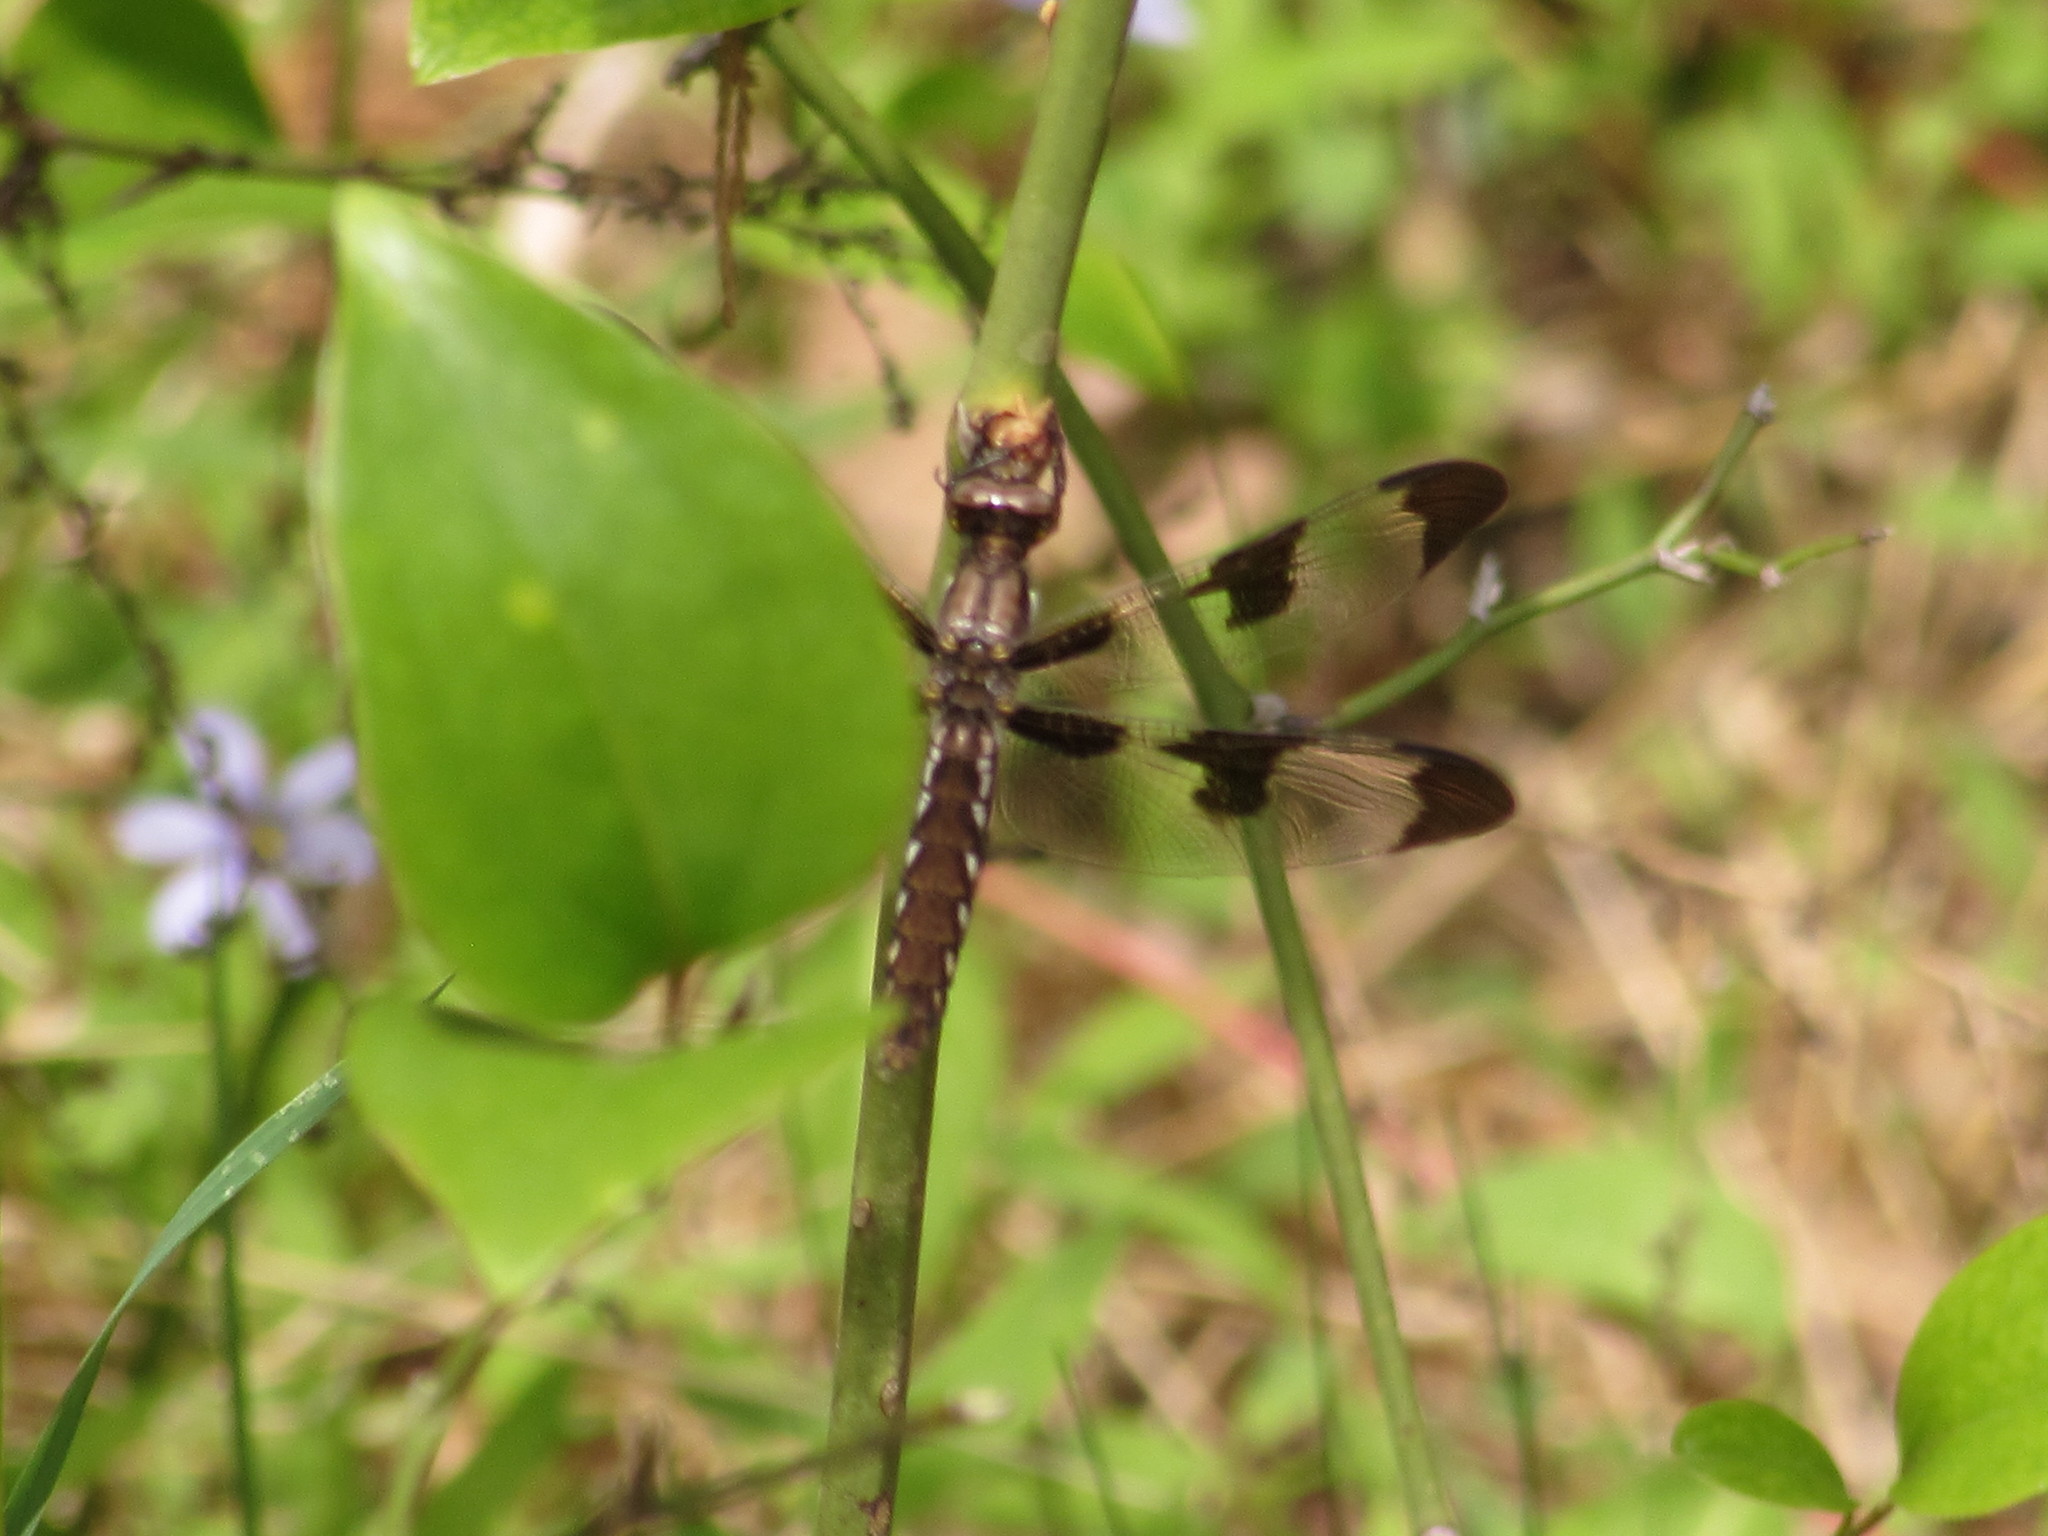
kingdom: Animalia
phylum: Arthropoda
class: Insecta
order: Odonata
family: Libellulidae
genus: Plathemis
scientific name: Plathemis lydia
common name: Common whitetail
